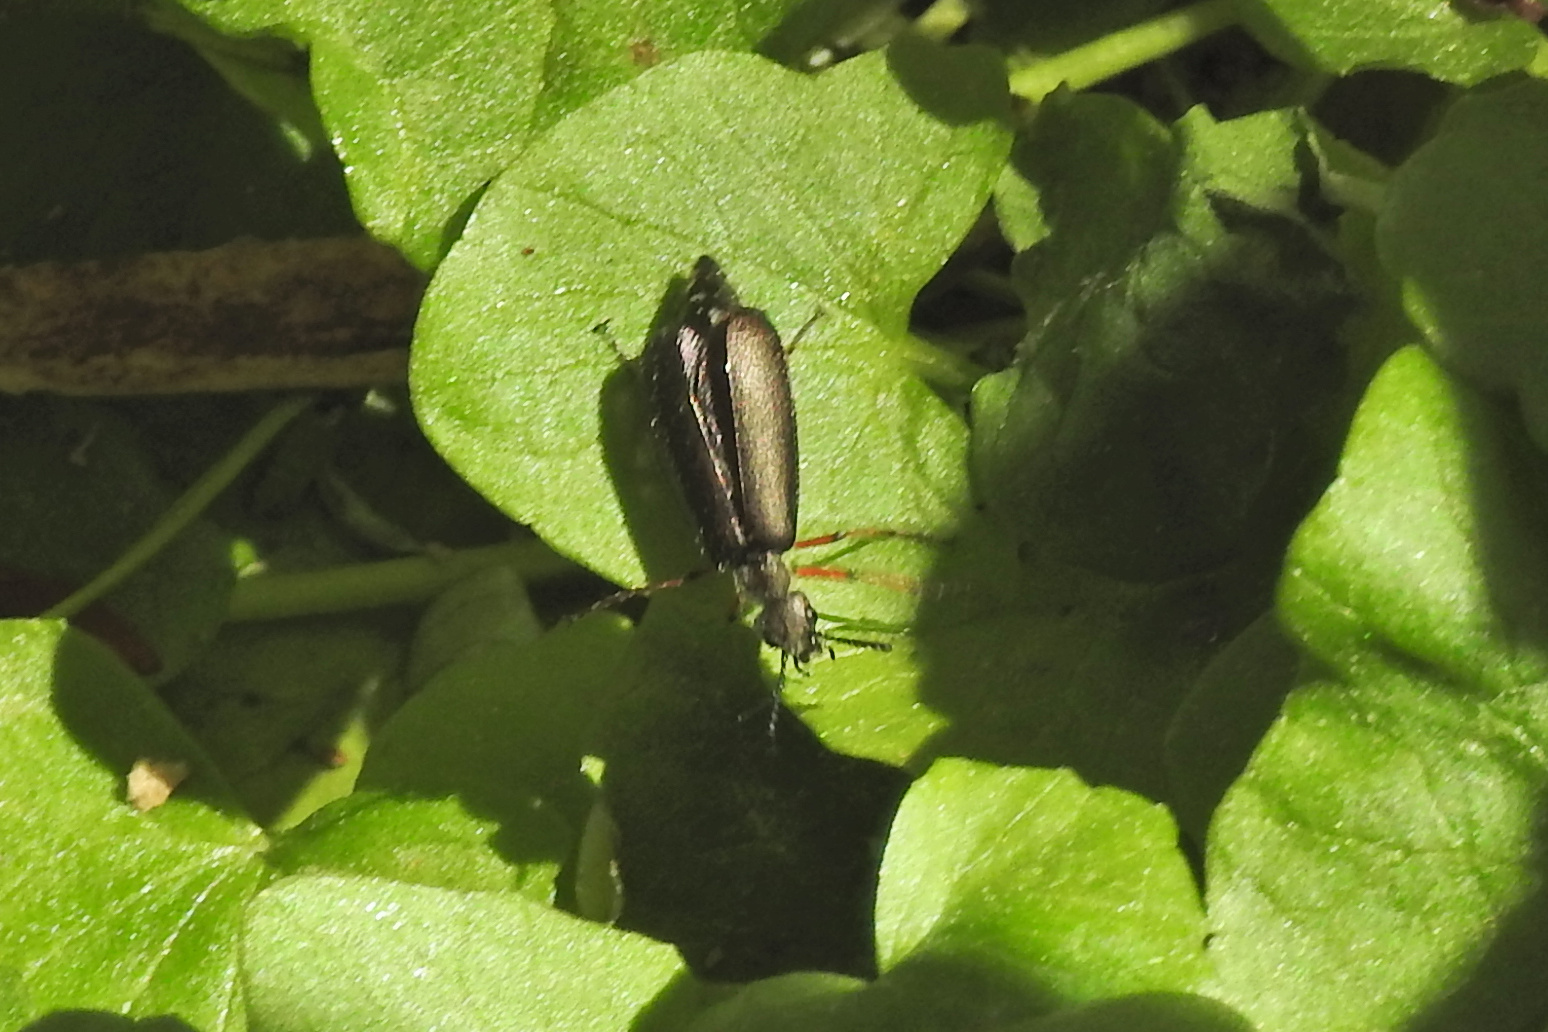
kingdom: Animalia
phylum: Arthropoda
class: Insecta
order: Coleoptera
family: Meloidae
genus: Lytta
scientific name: Lytta aenea
